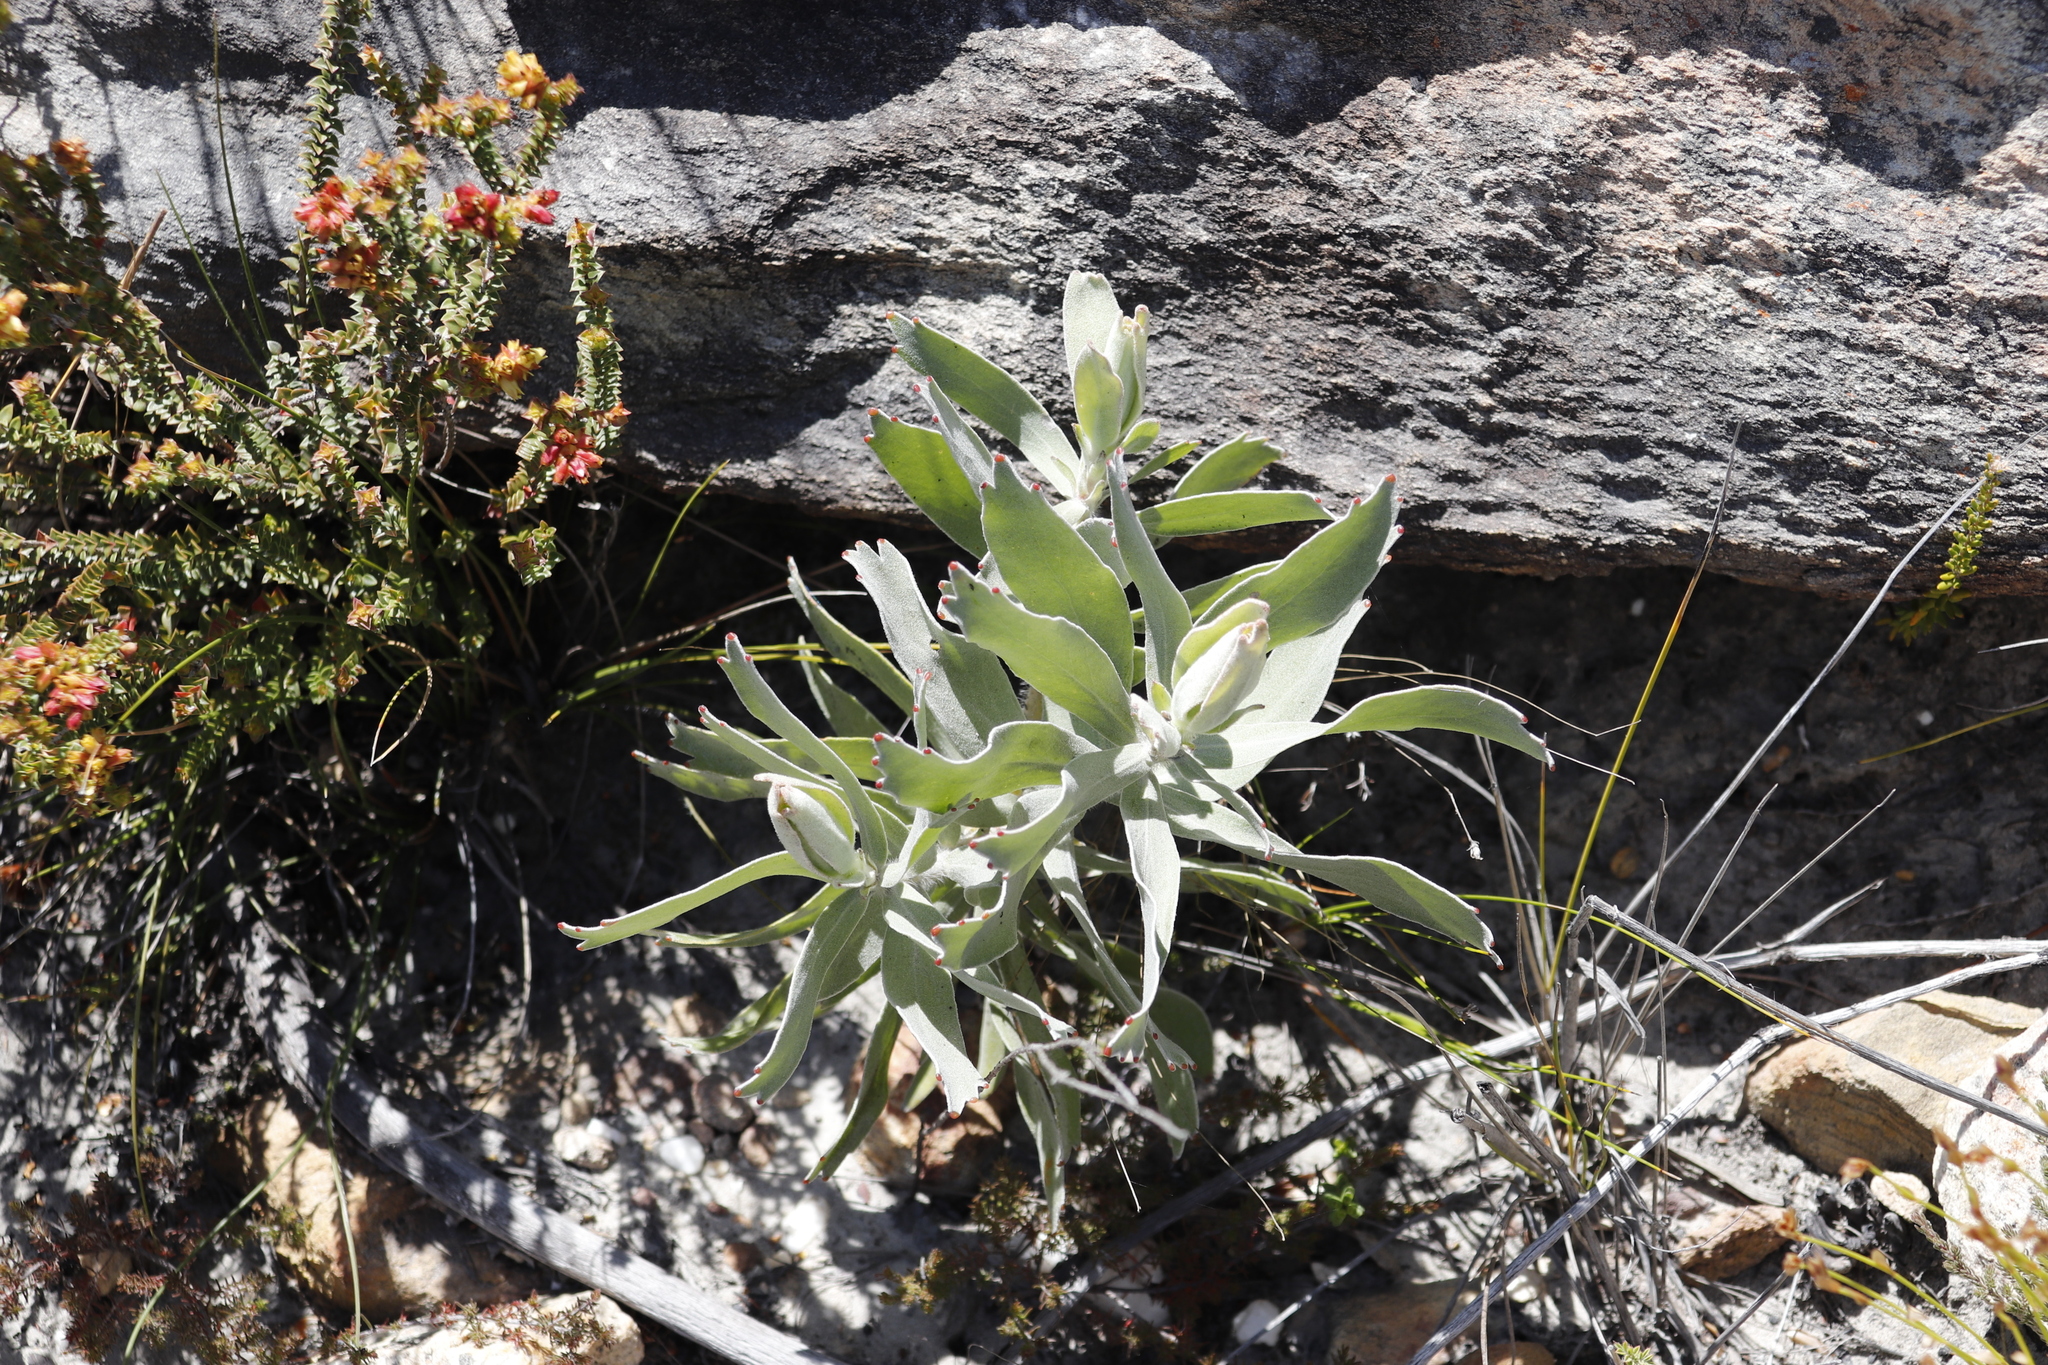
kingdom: Plantae
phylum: Tracheophyta
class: Magnoliopsida
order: Proteales
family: Proteaceae
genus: Leucospermum
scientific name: Leucospermum cordifolium
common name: Red pincushion-protea
